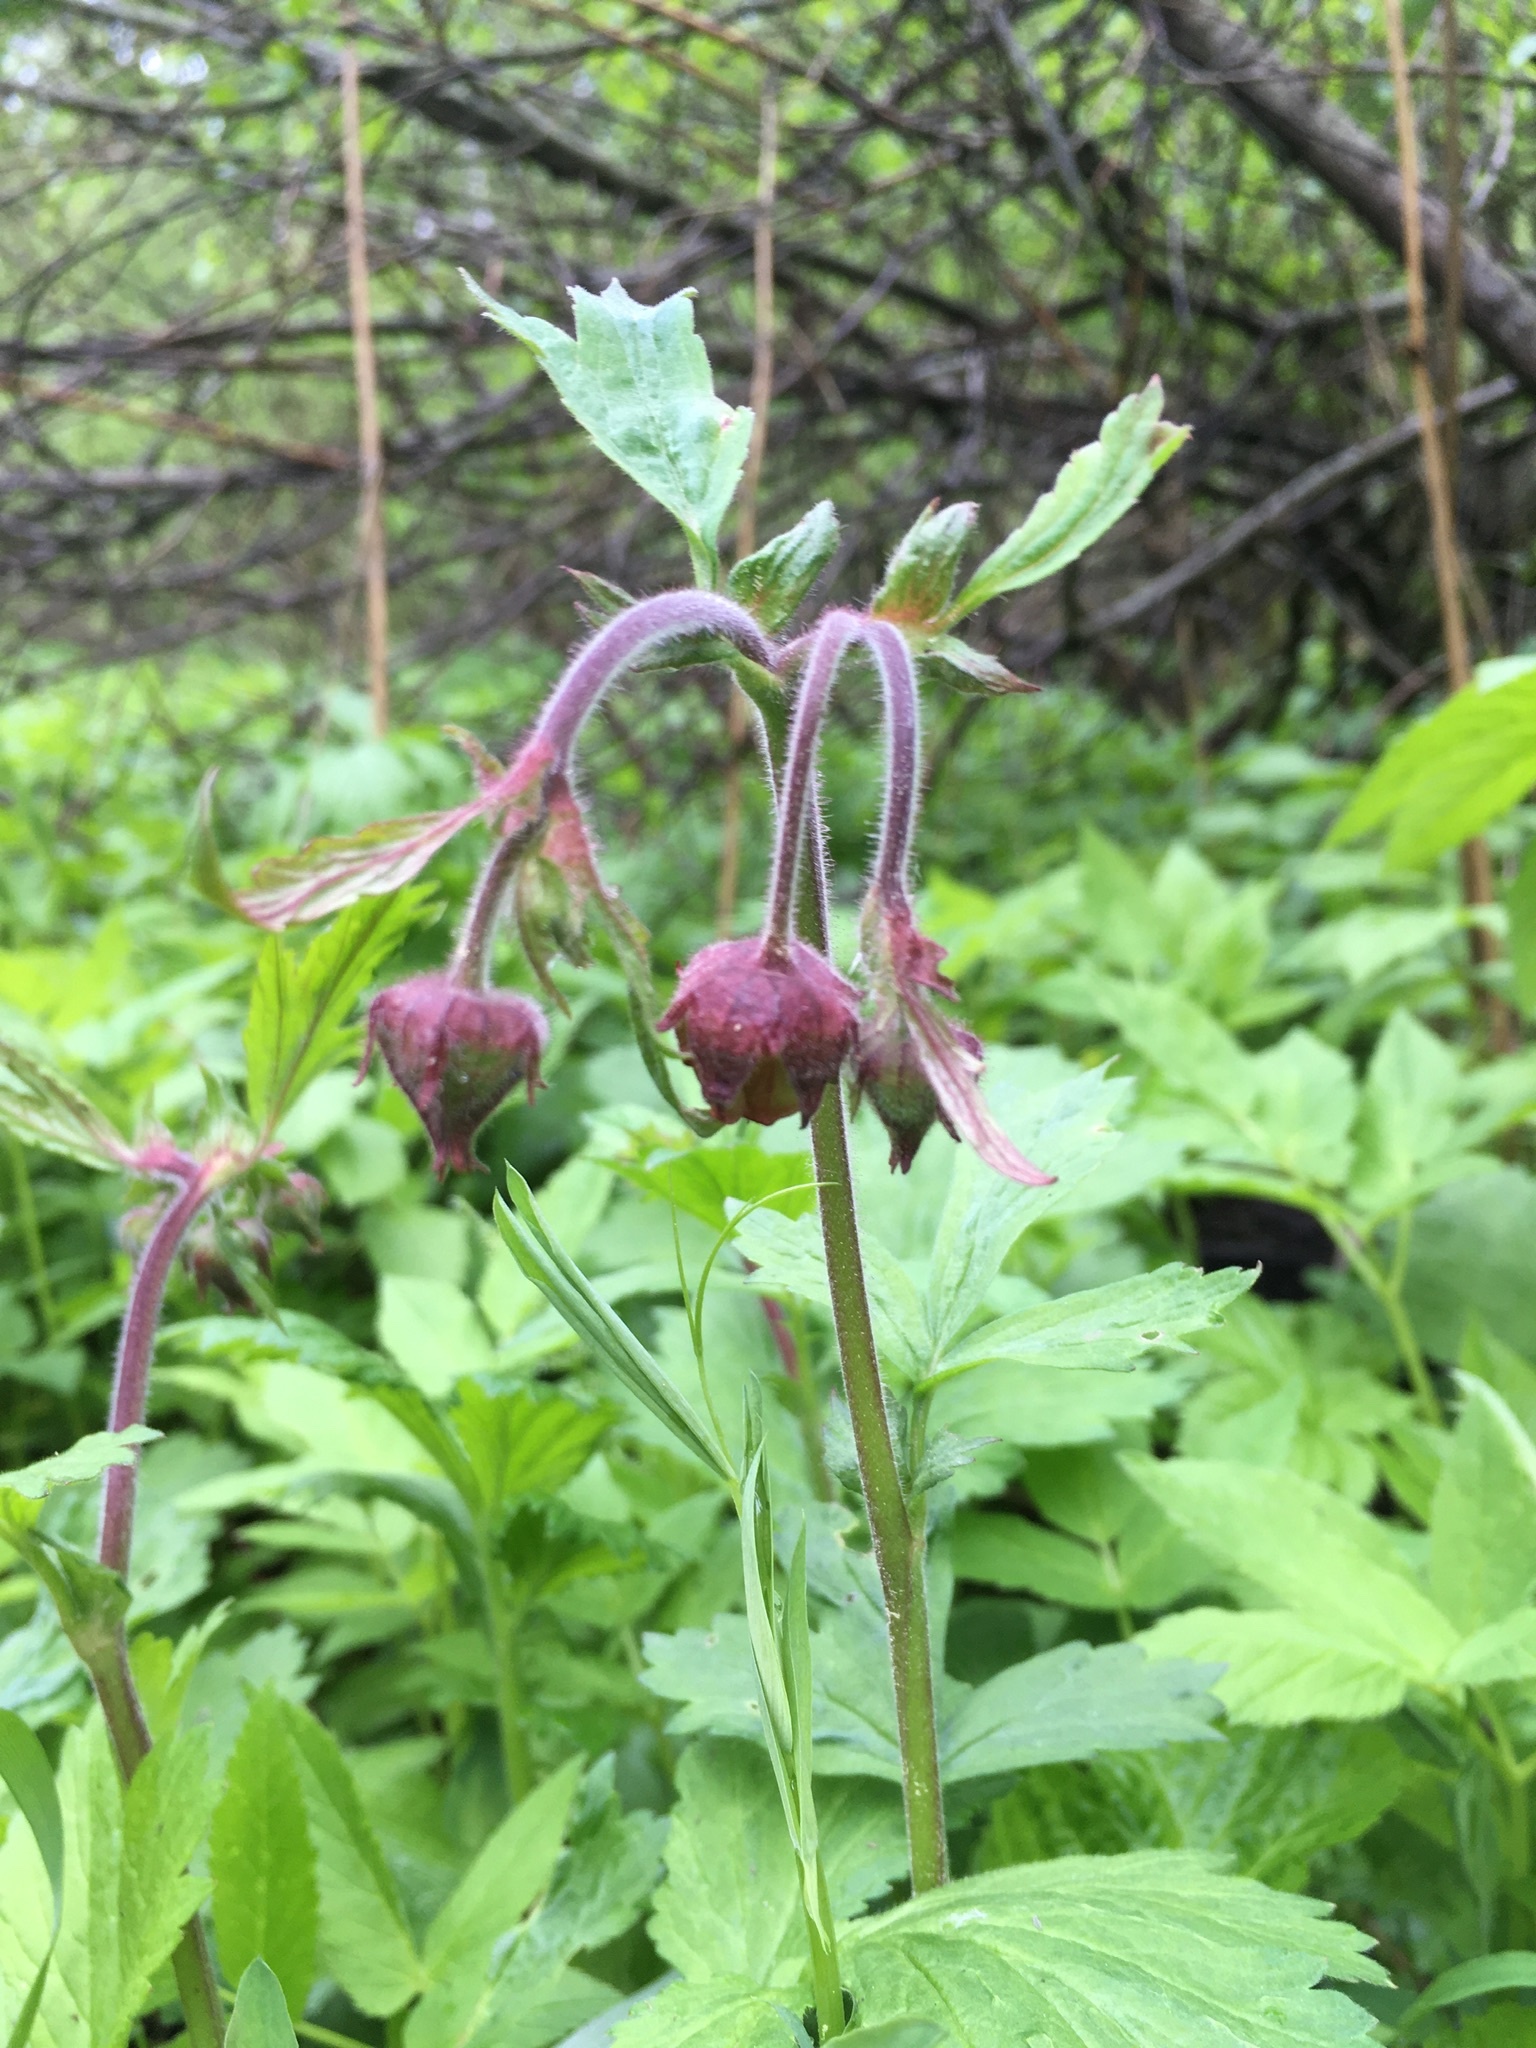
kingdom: Plantae
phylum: Tracheophyta
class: Magnoliopsida
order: Rosales
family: Rosaceae
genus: Geum
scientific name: Geum rivale
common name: Water avens
